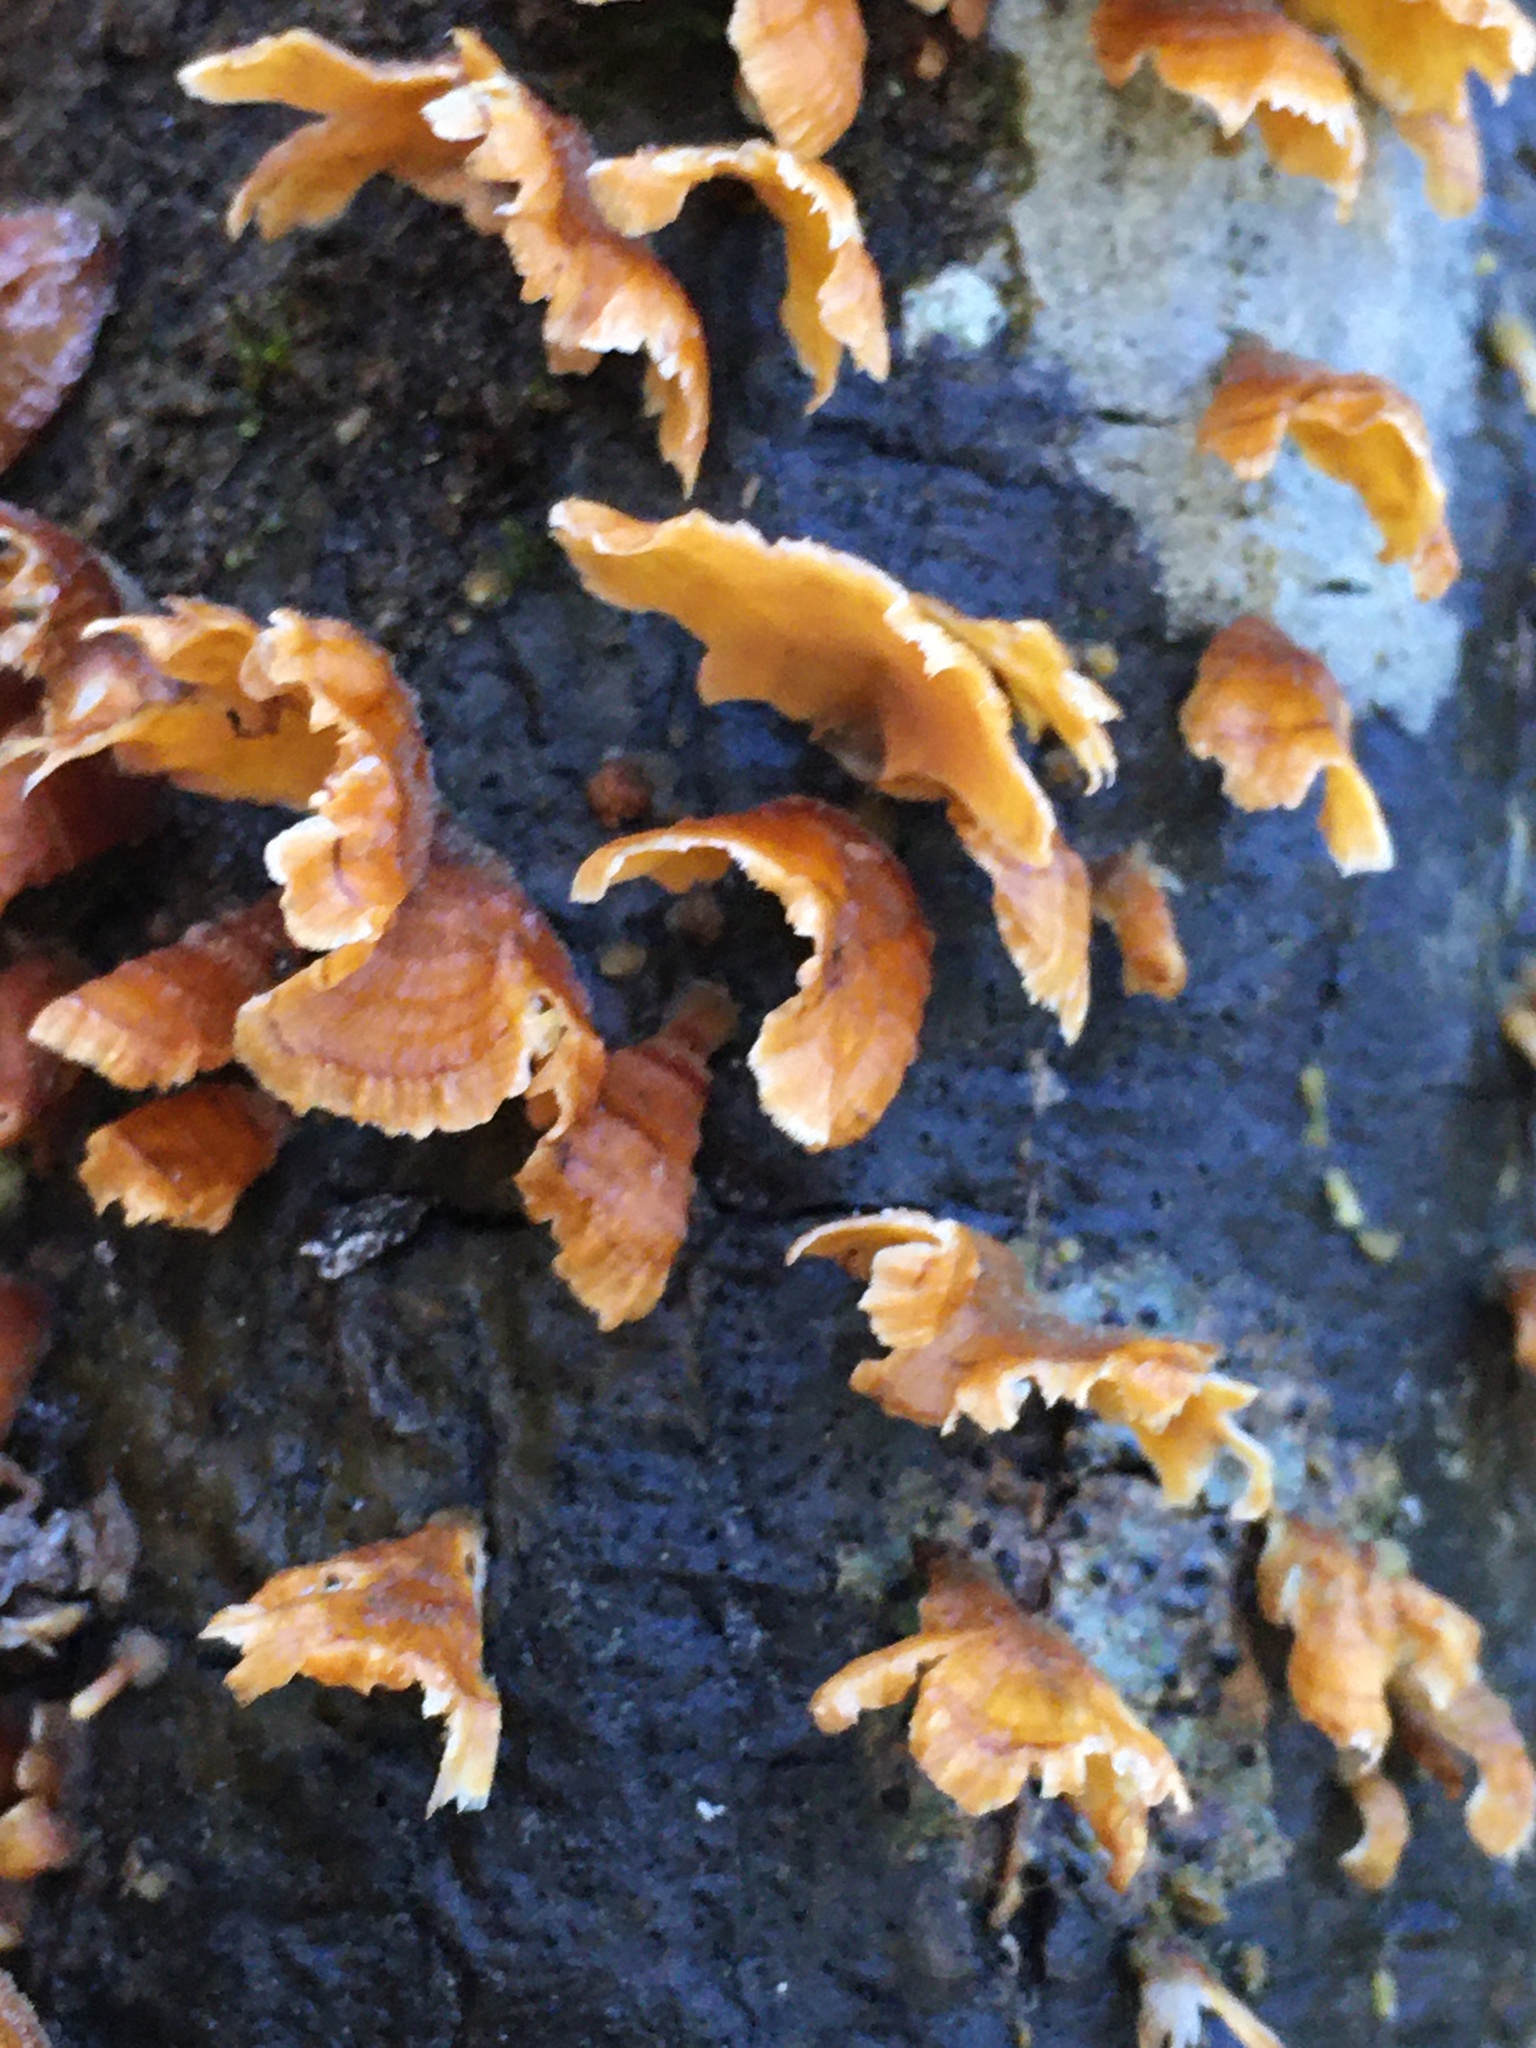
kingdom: Fungi
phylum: Basidiomycota
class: Agaricomycetes
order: Russulales
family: Stereaceae
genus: Stereum
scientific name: Stereum complicatum
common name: Crowded parchment
